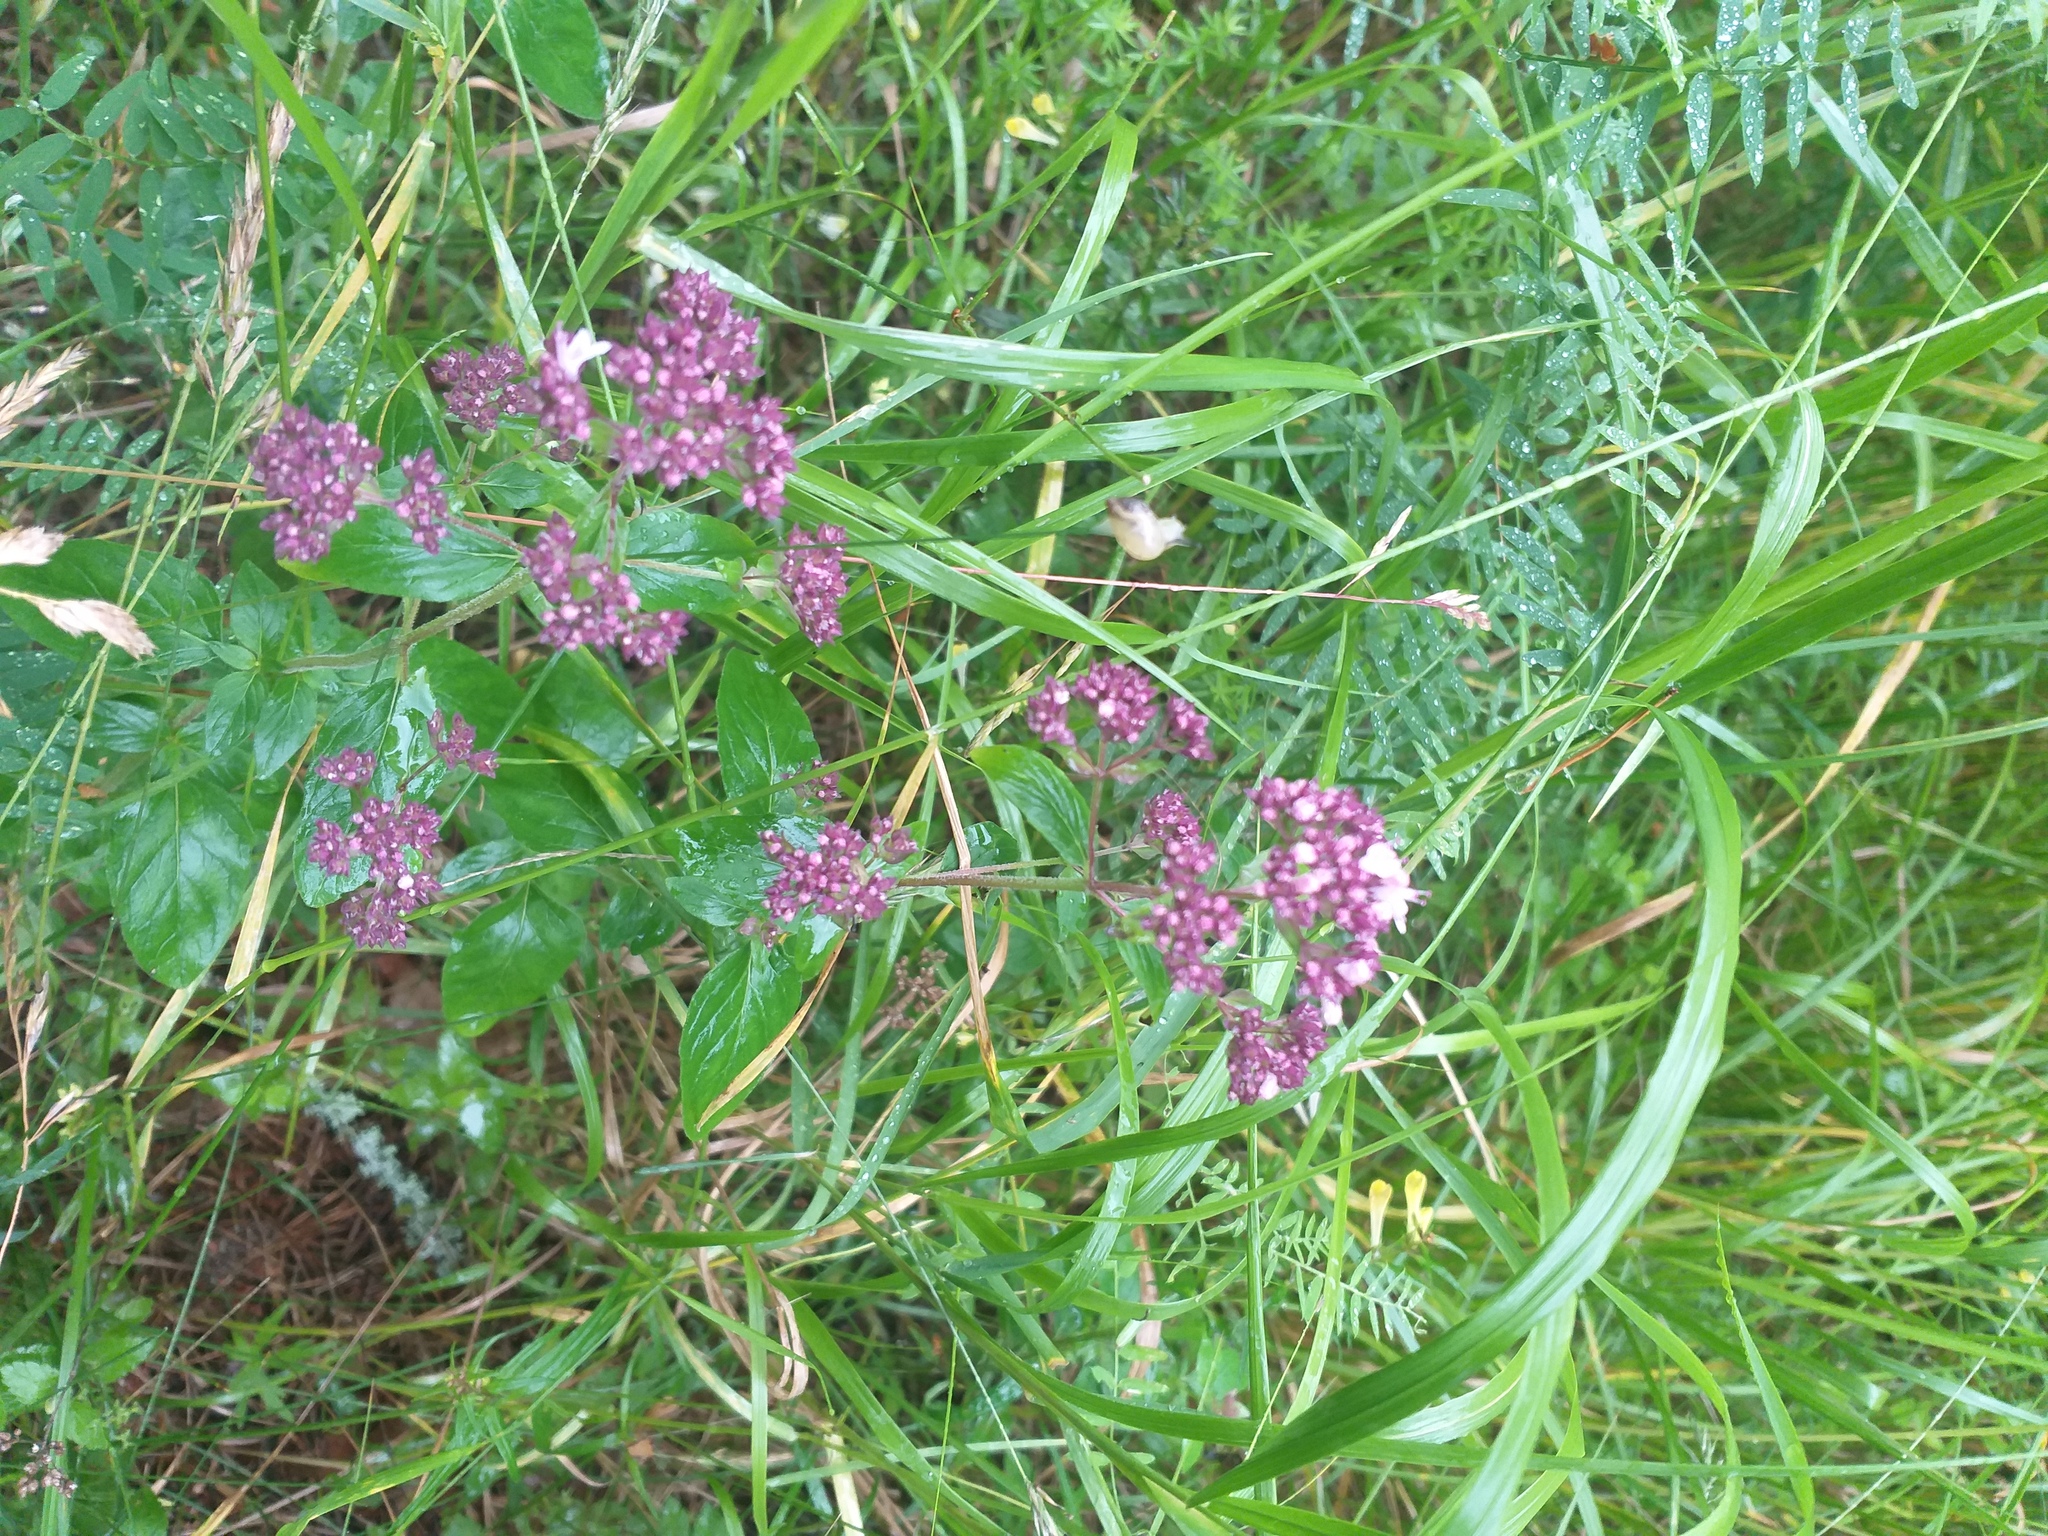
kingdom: Plantae
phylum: Tracheophyta
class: Magnoliopsida
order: Lamiales
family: Lamiaceae
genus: Origanum
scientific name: Origanum vulgare
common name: Wild marjoram
